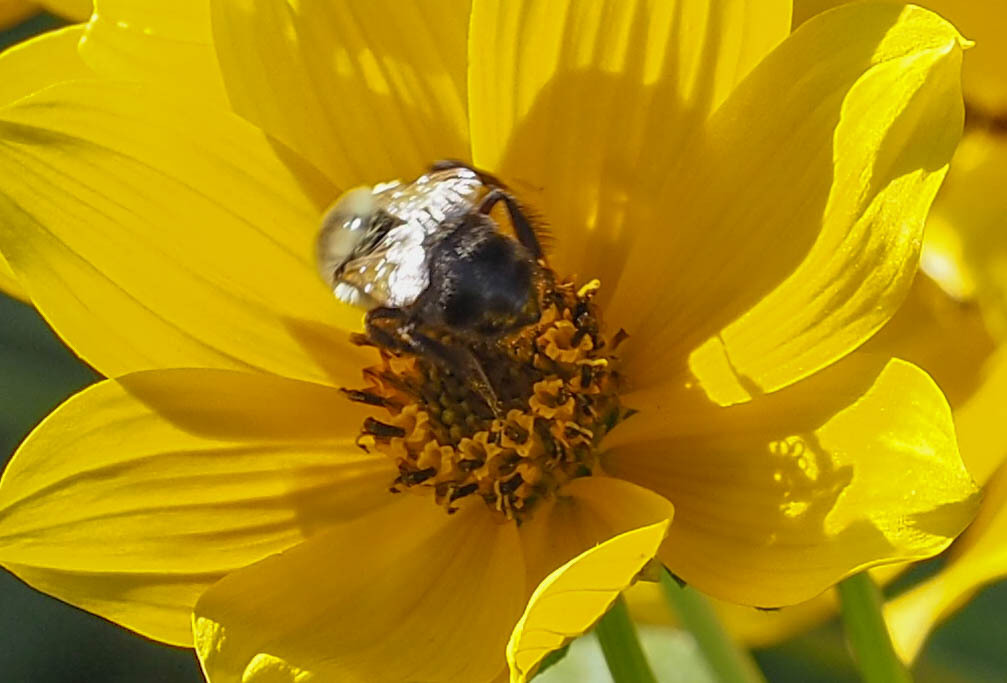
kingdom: Animalia
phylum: Arthropoda
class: Insecta
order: Hymenoptera
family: Apidae
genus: Bombus
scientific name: Bombus impatiens
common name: Common eastern bumble bee
